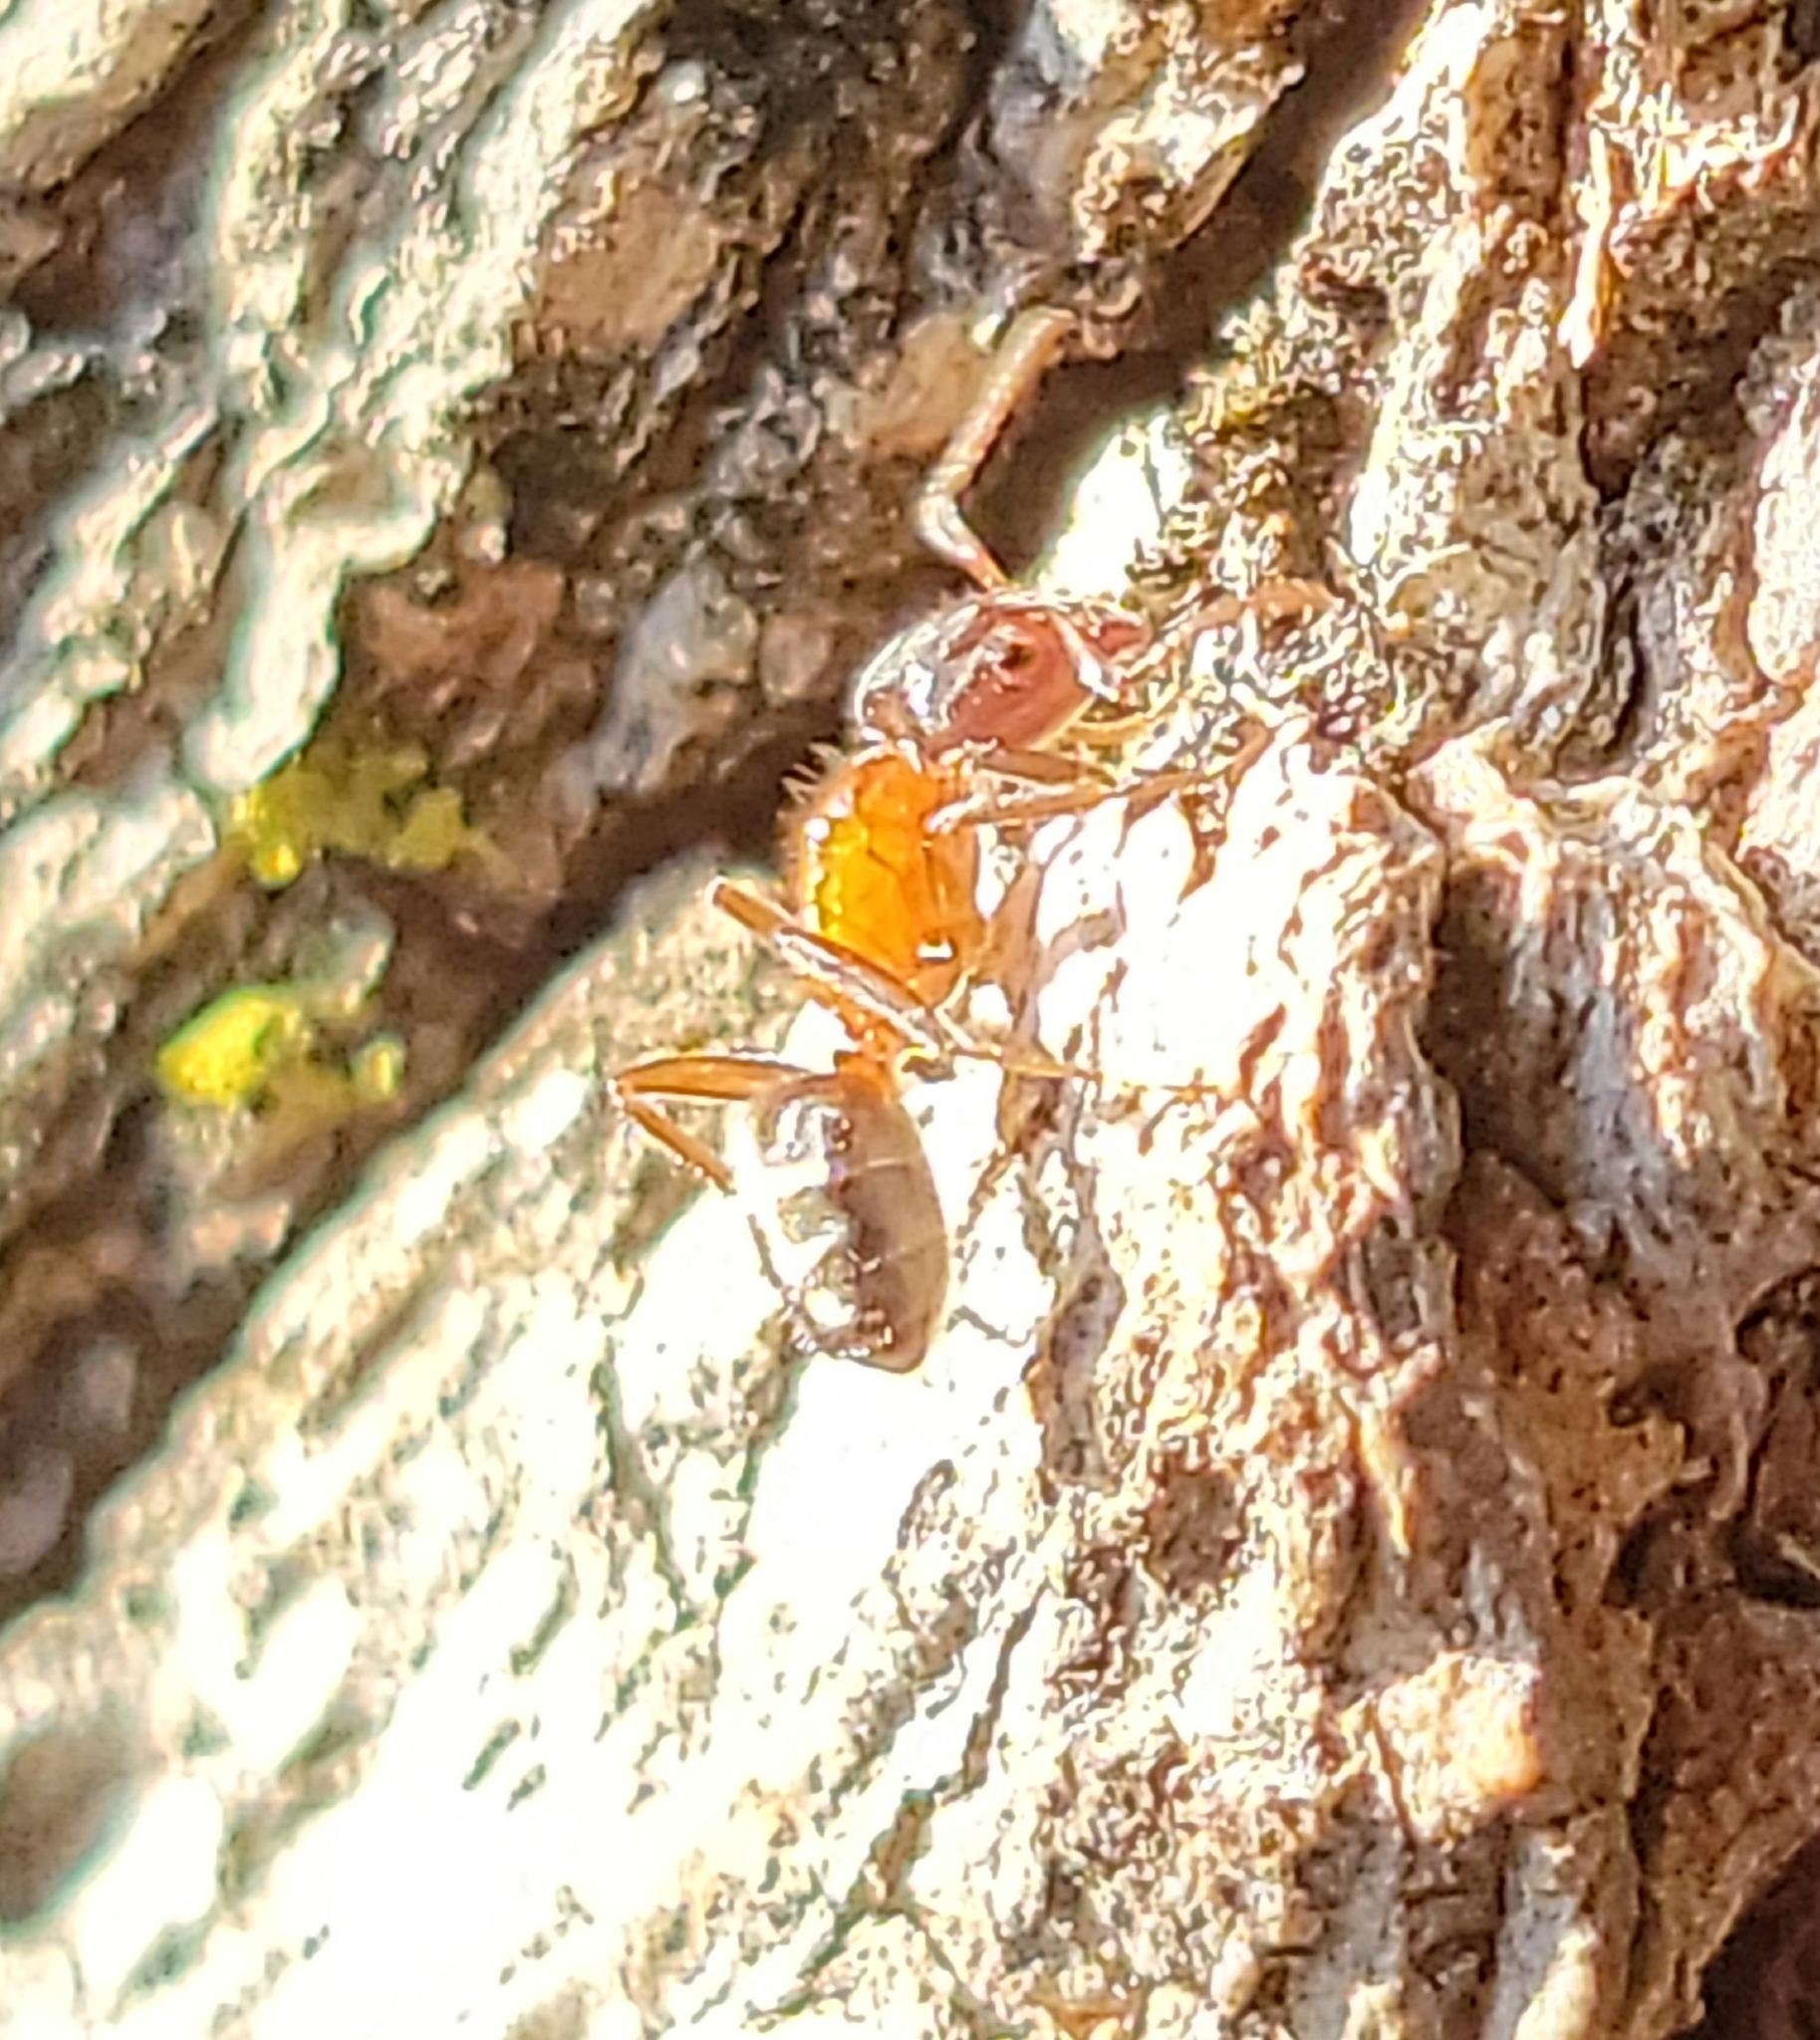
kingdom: Animalia
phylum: Arthropoda
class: Insecta
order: Hymenoptera
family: Formicidae
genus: Liometopum
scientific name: Liometopum occidentale
